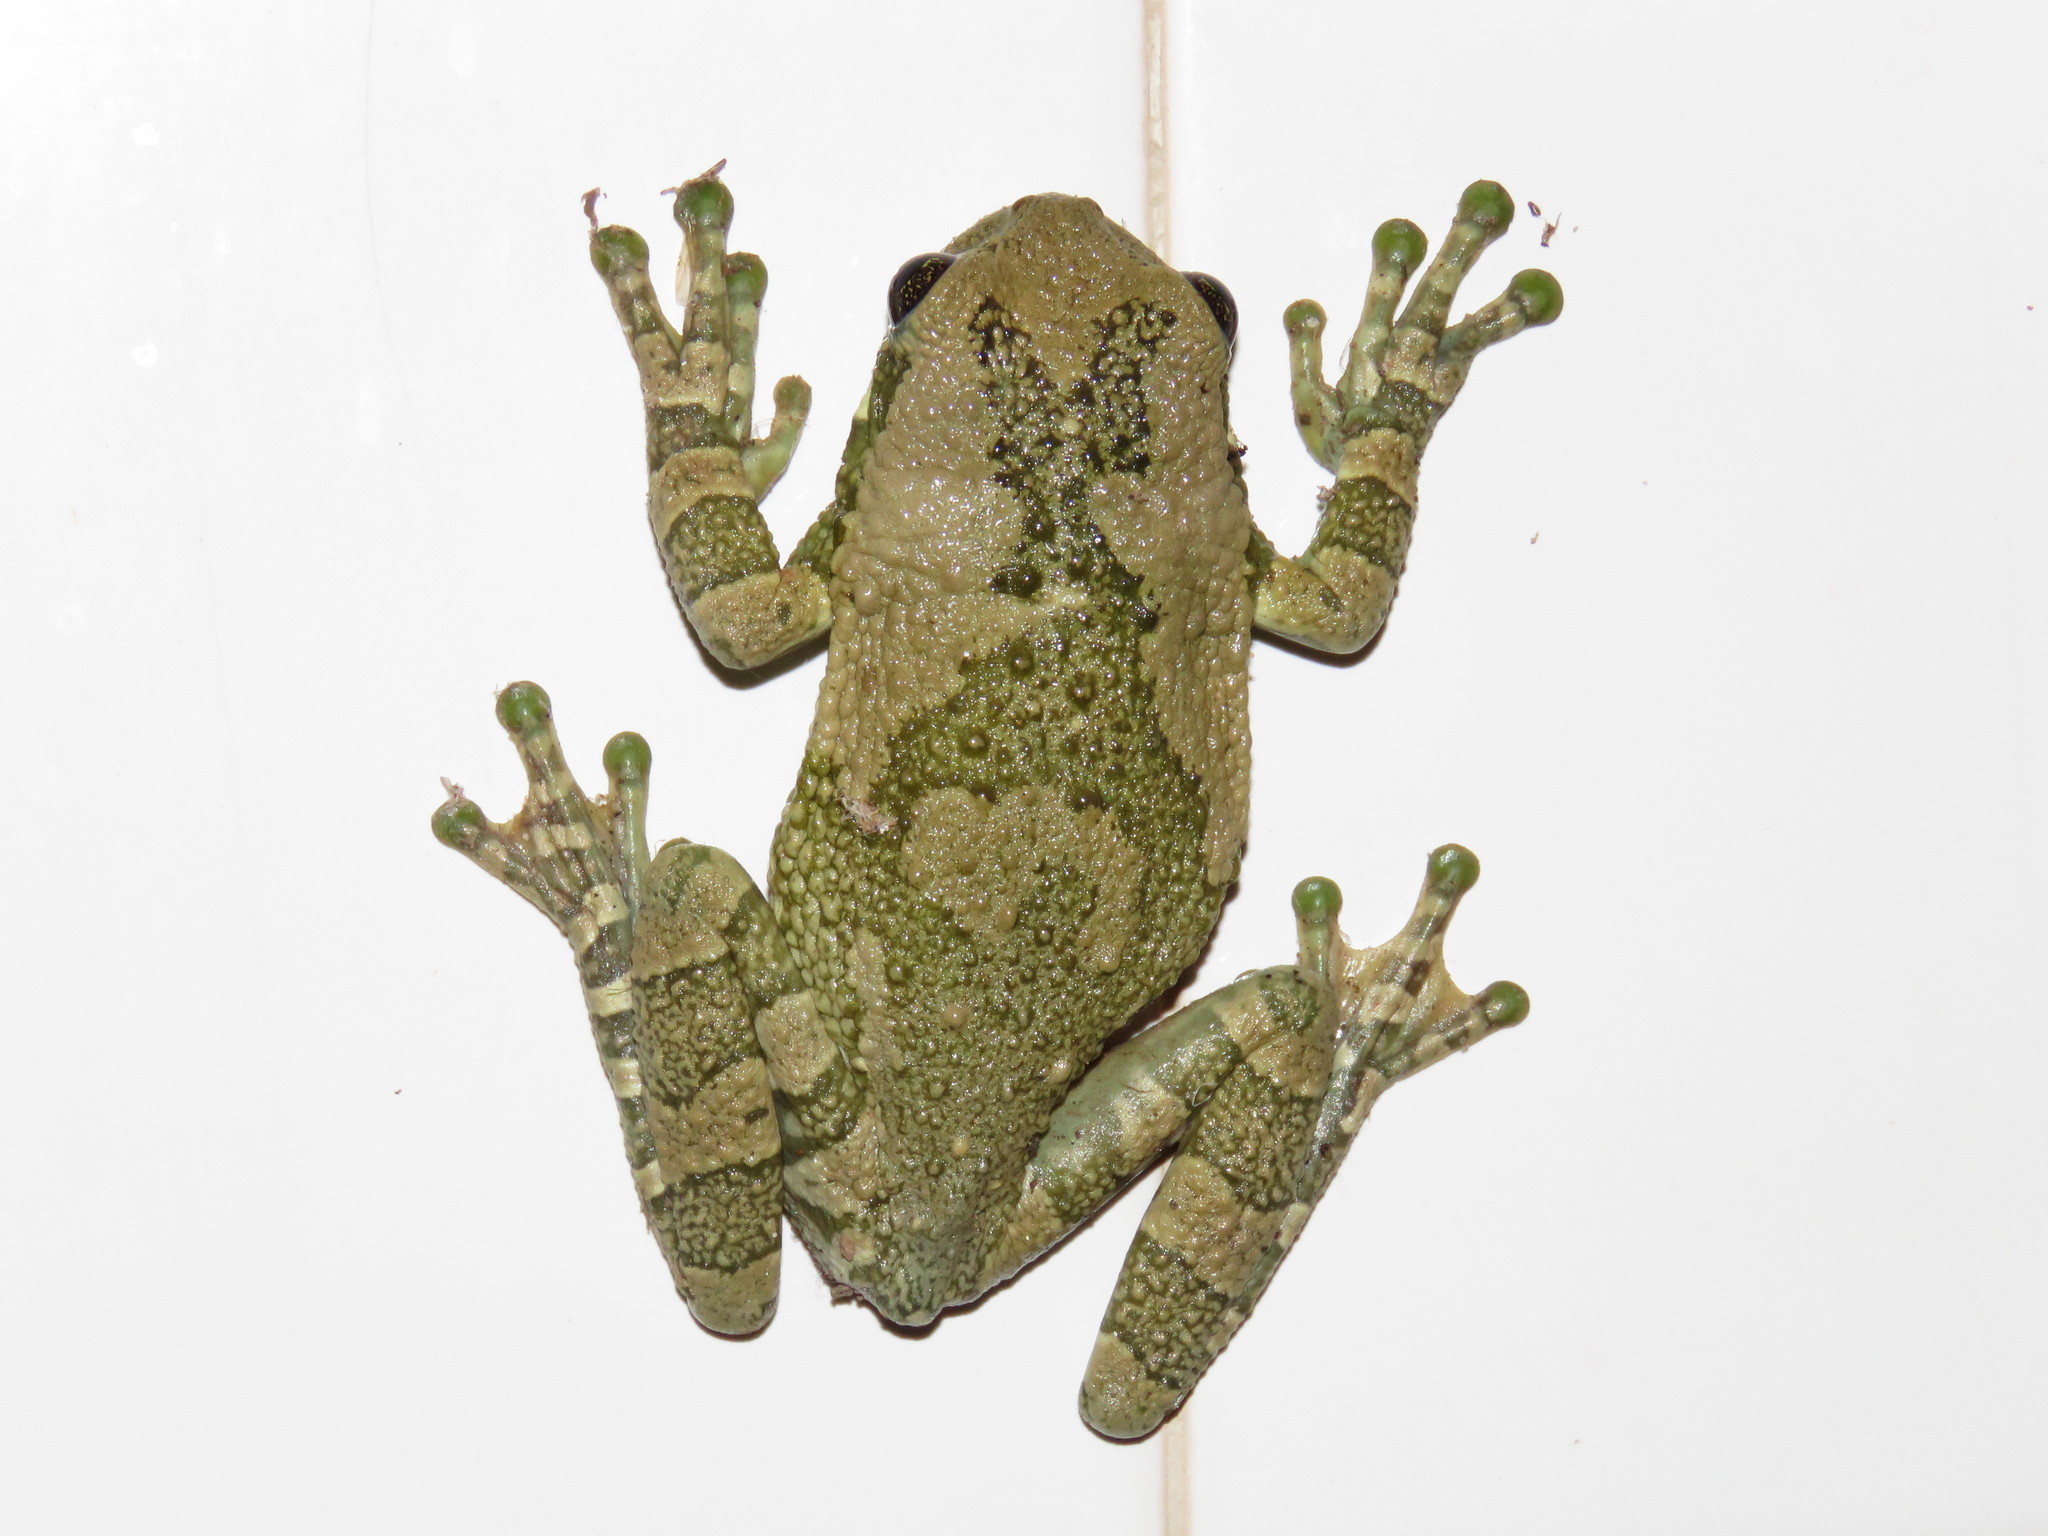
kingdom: Animalia
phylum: Chordata
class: Amphibia
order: Anura
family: Hylidae
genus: Trachycephalus
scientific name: Trachycephalus typhonius
